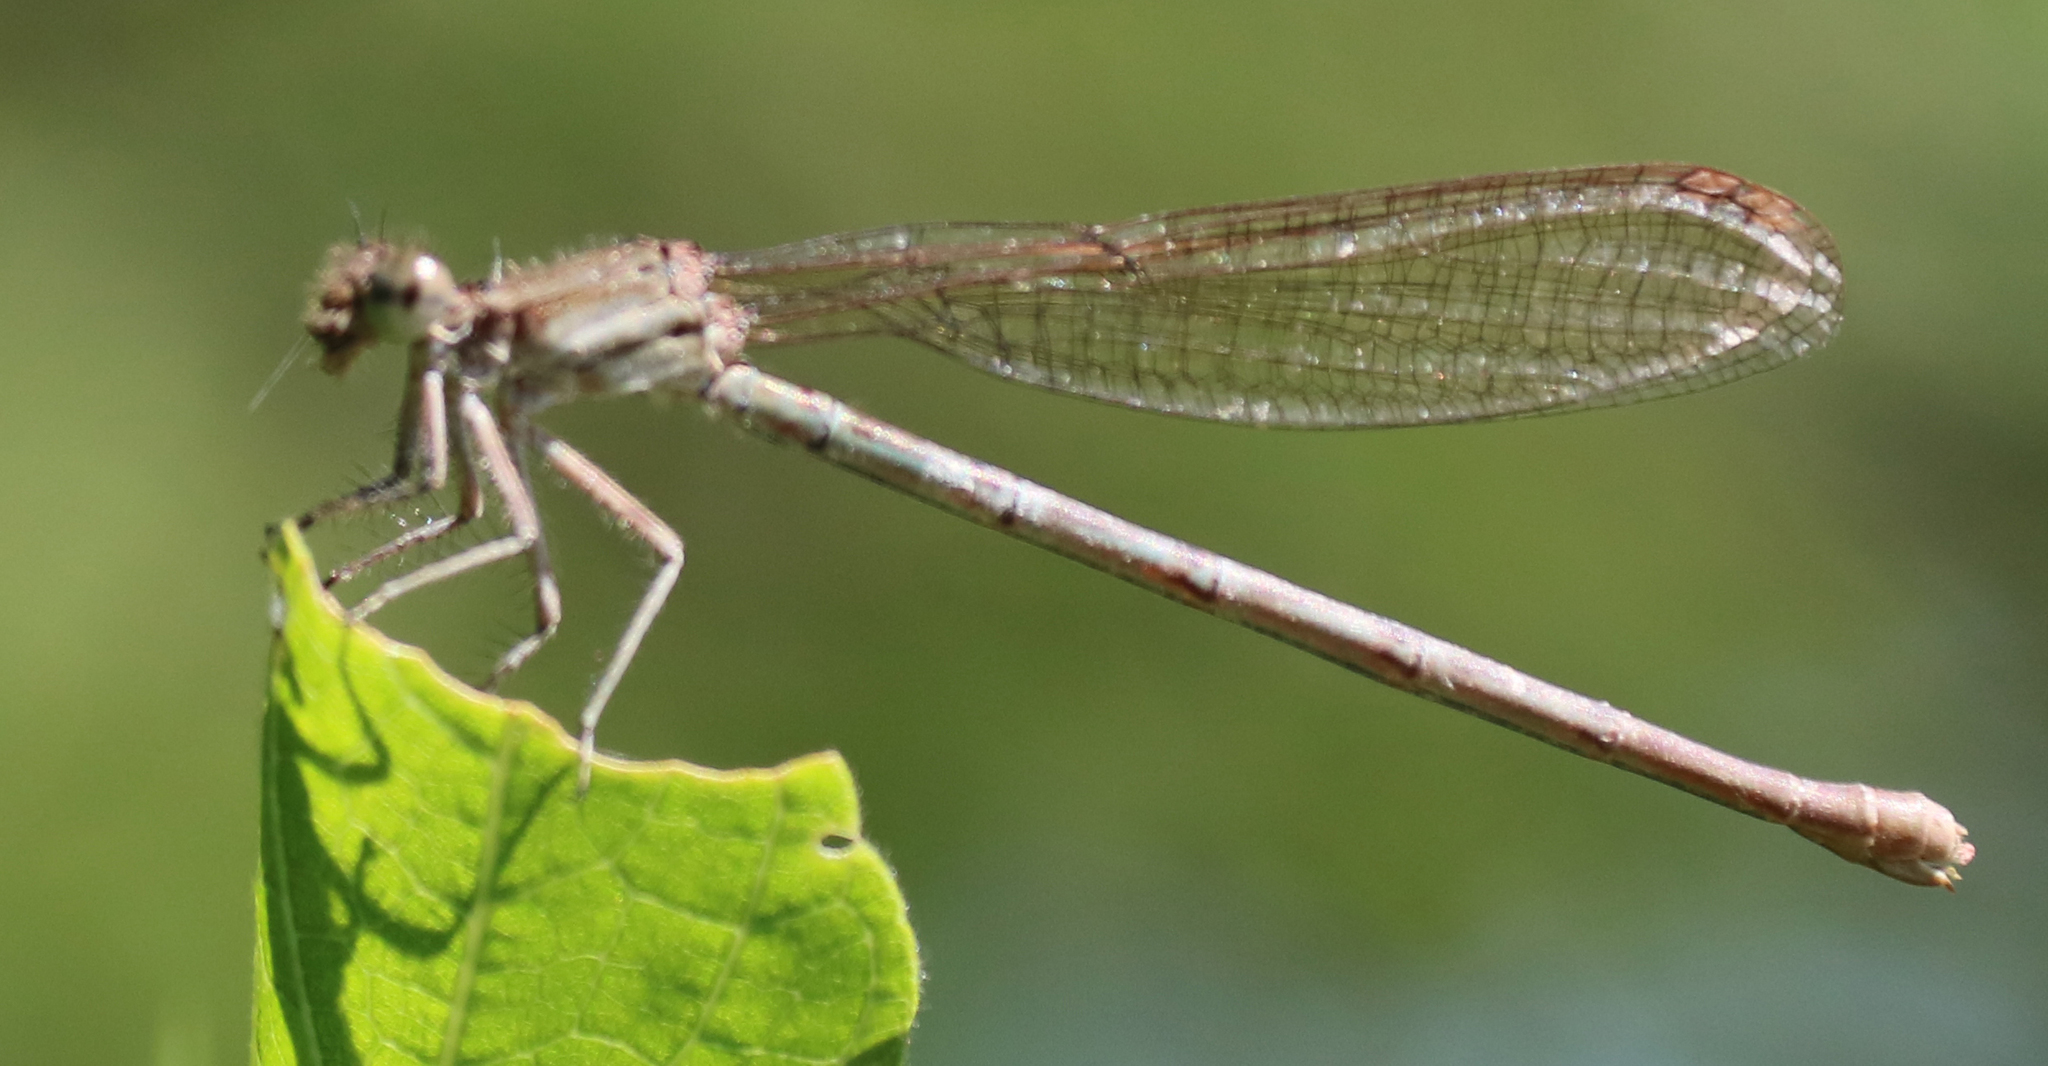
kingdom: Animalia
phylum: Arthropoda
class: Insecta
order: Odonata
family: Coenagrionidae
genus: Argia
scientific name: Argia sedula
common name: Blue-ringed dancer
